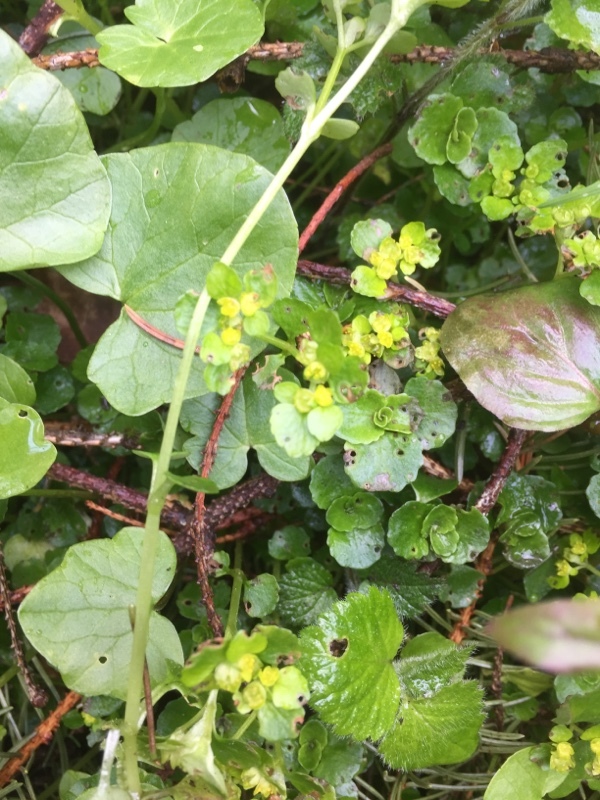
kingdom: Plantae
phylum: Tracheophyta
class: Magnoliopsida
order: Saxifragales
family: Saxifragaceae
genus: Chrysosplenium
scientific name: Chrysosplenium oppositifolium
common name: Opposite-leaved golden-saxifrage
